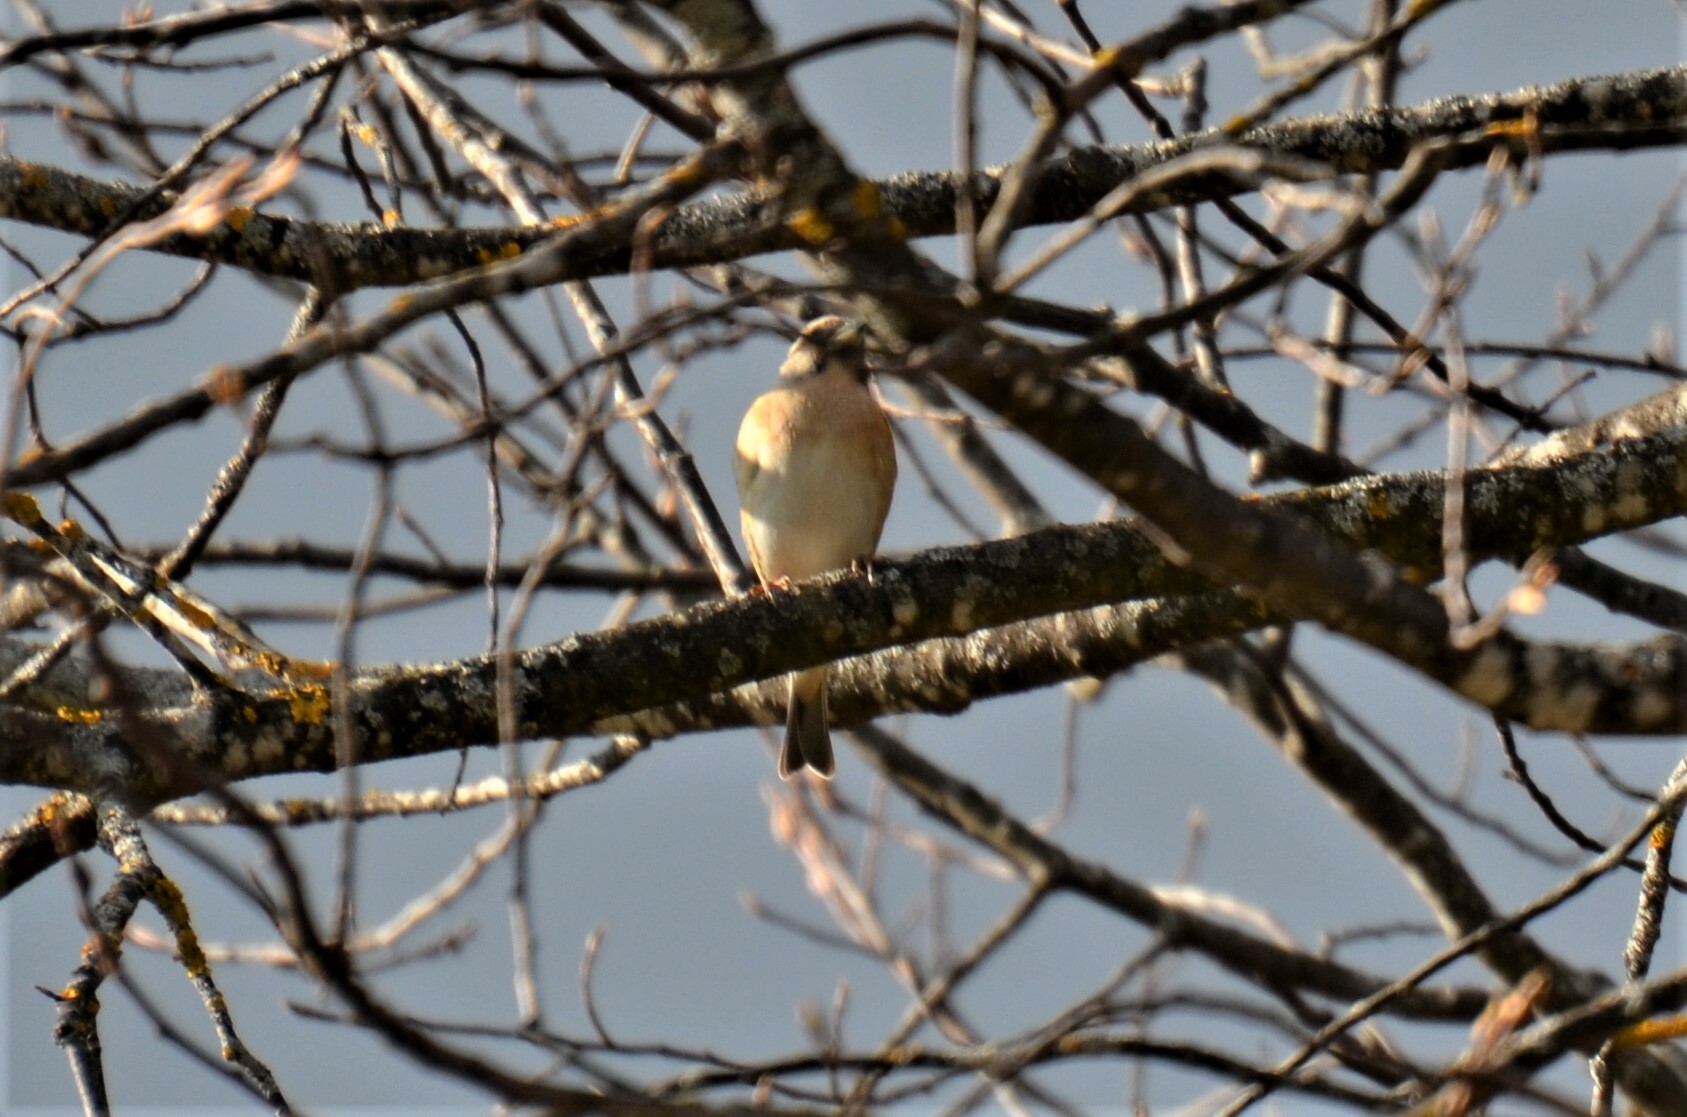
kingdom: Animalia
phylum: Chordata
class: Aves
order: Passeriformes
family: Fringillidae
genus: Fringilla
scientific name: Fringilla montifringilla
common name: Brambling
